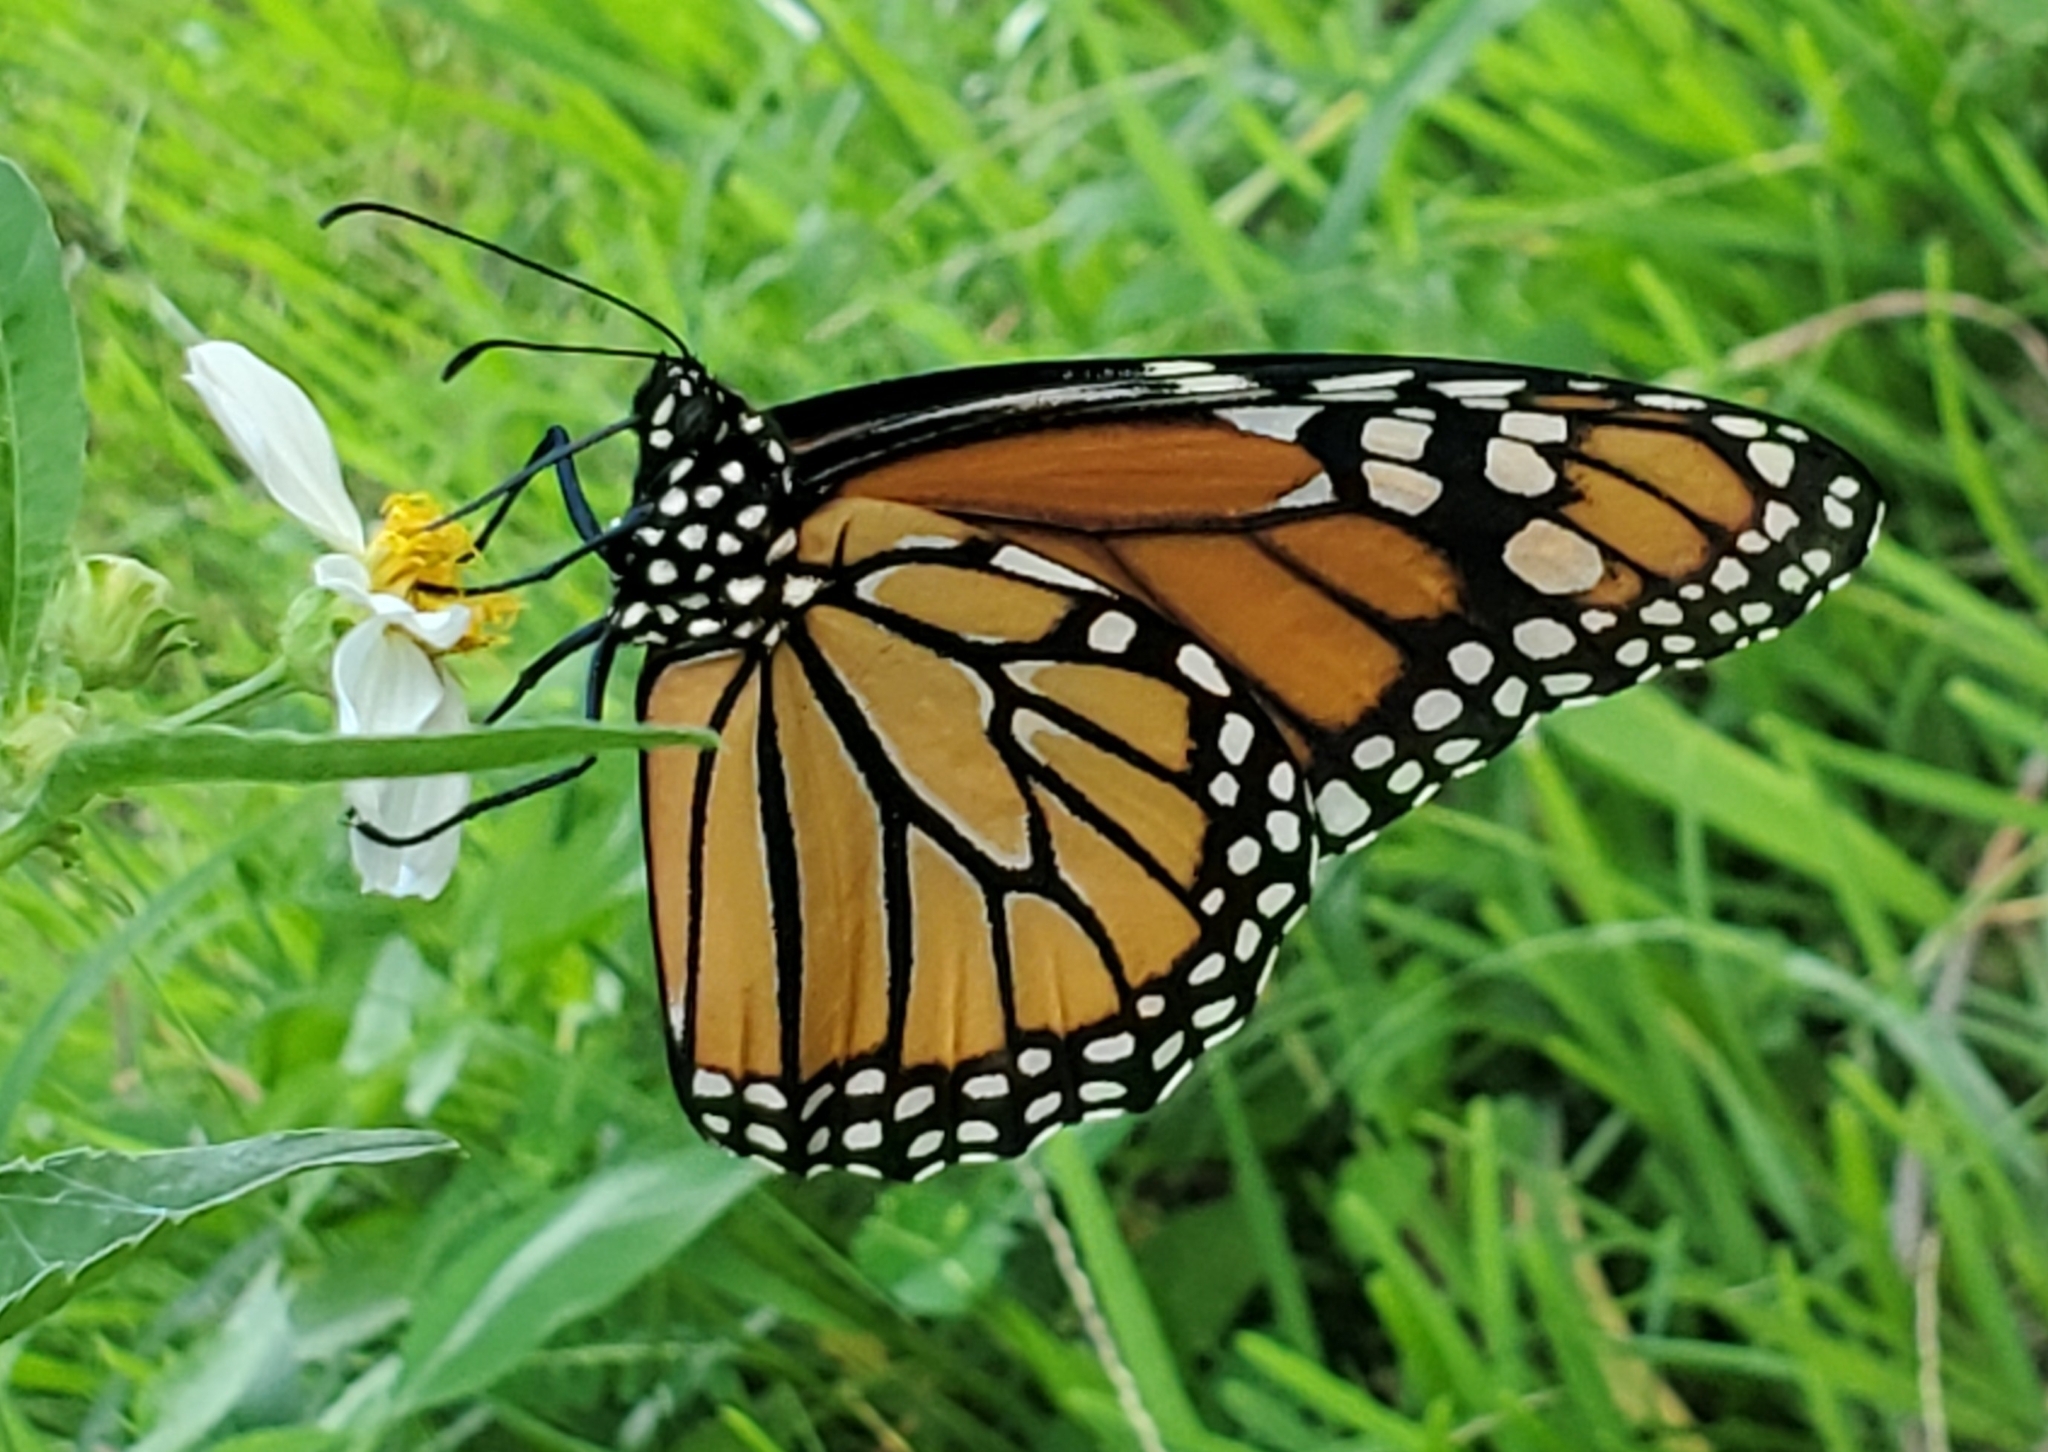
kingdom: Animalia
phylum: Arthropoda
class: Insecta
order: Lepidoptera
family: Nymphalidae
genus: Danaus
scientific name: Danaus plexippus
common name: Monarch
